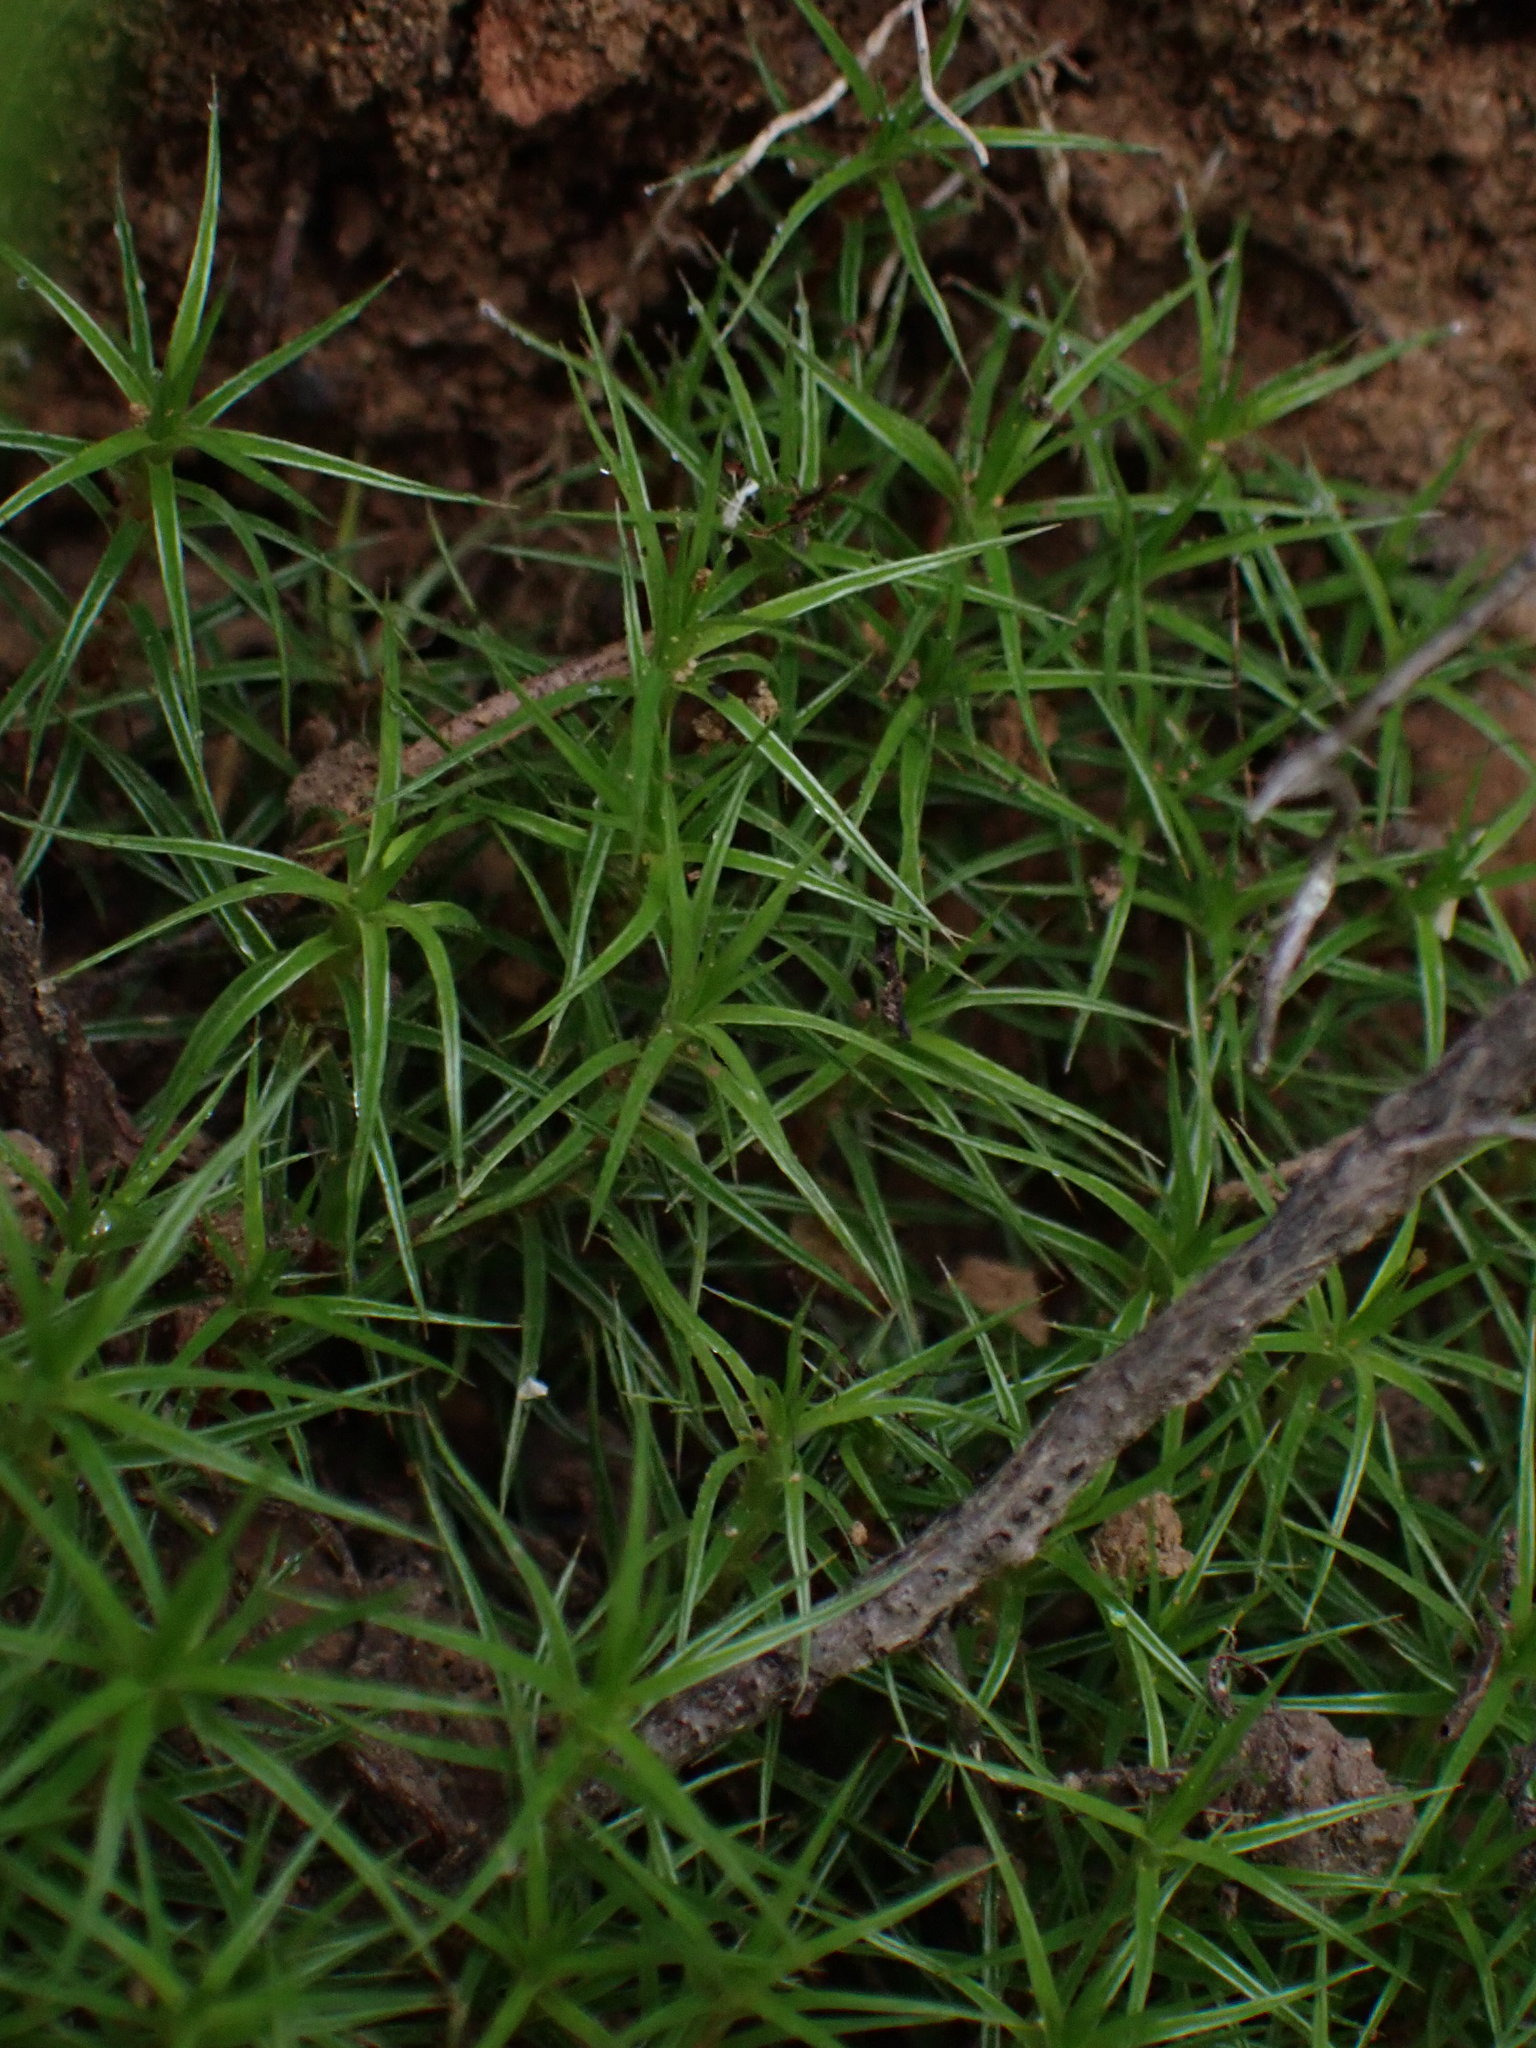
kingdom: Plantae
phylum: Bryophyta
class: Polytrichopsida
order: Polytrichales
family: Polytrichaceae
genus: Polytrichum
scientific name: Polytrichum juniperinum
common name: Juniper haircap moss
